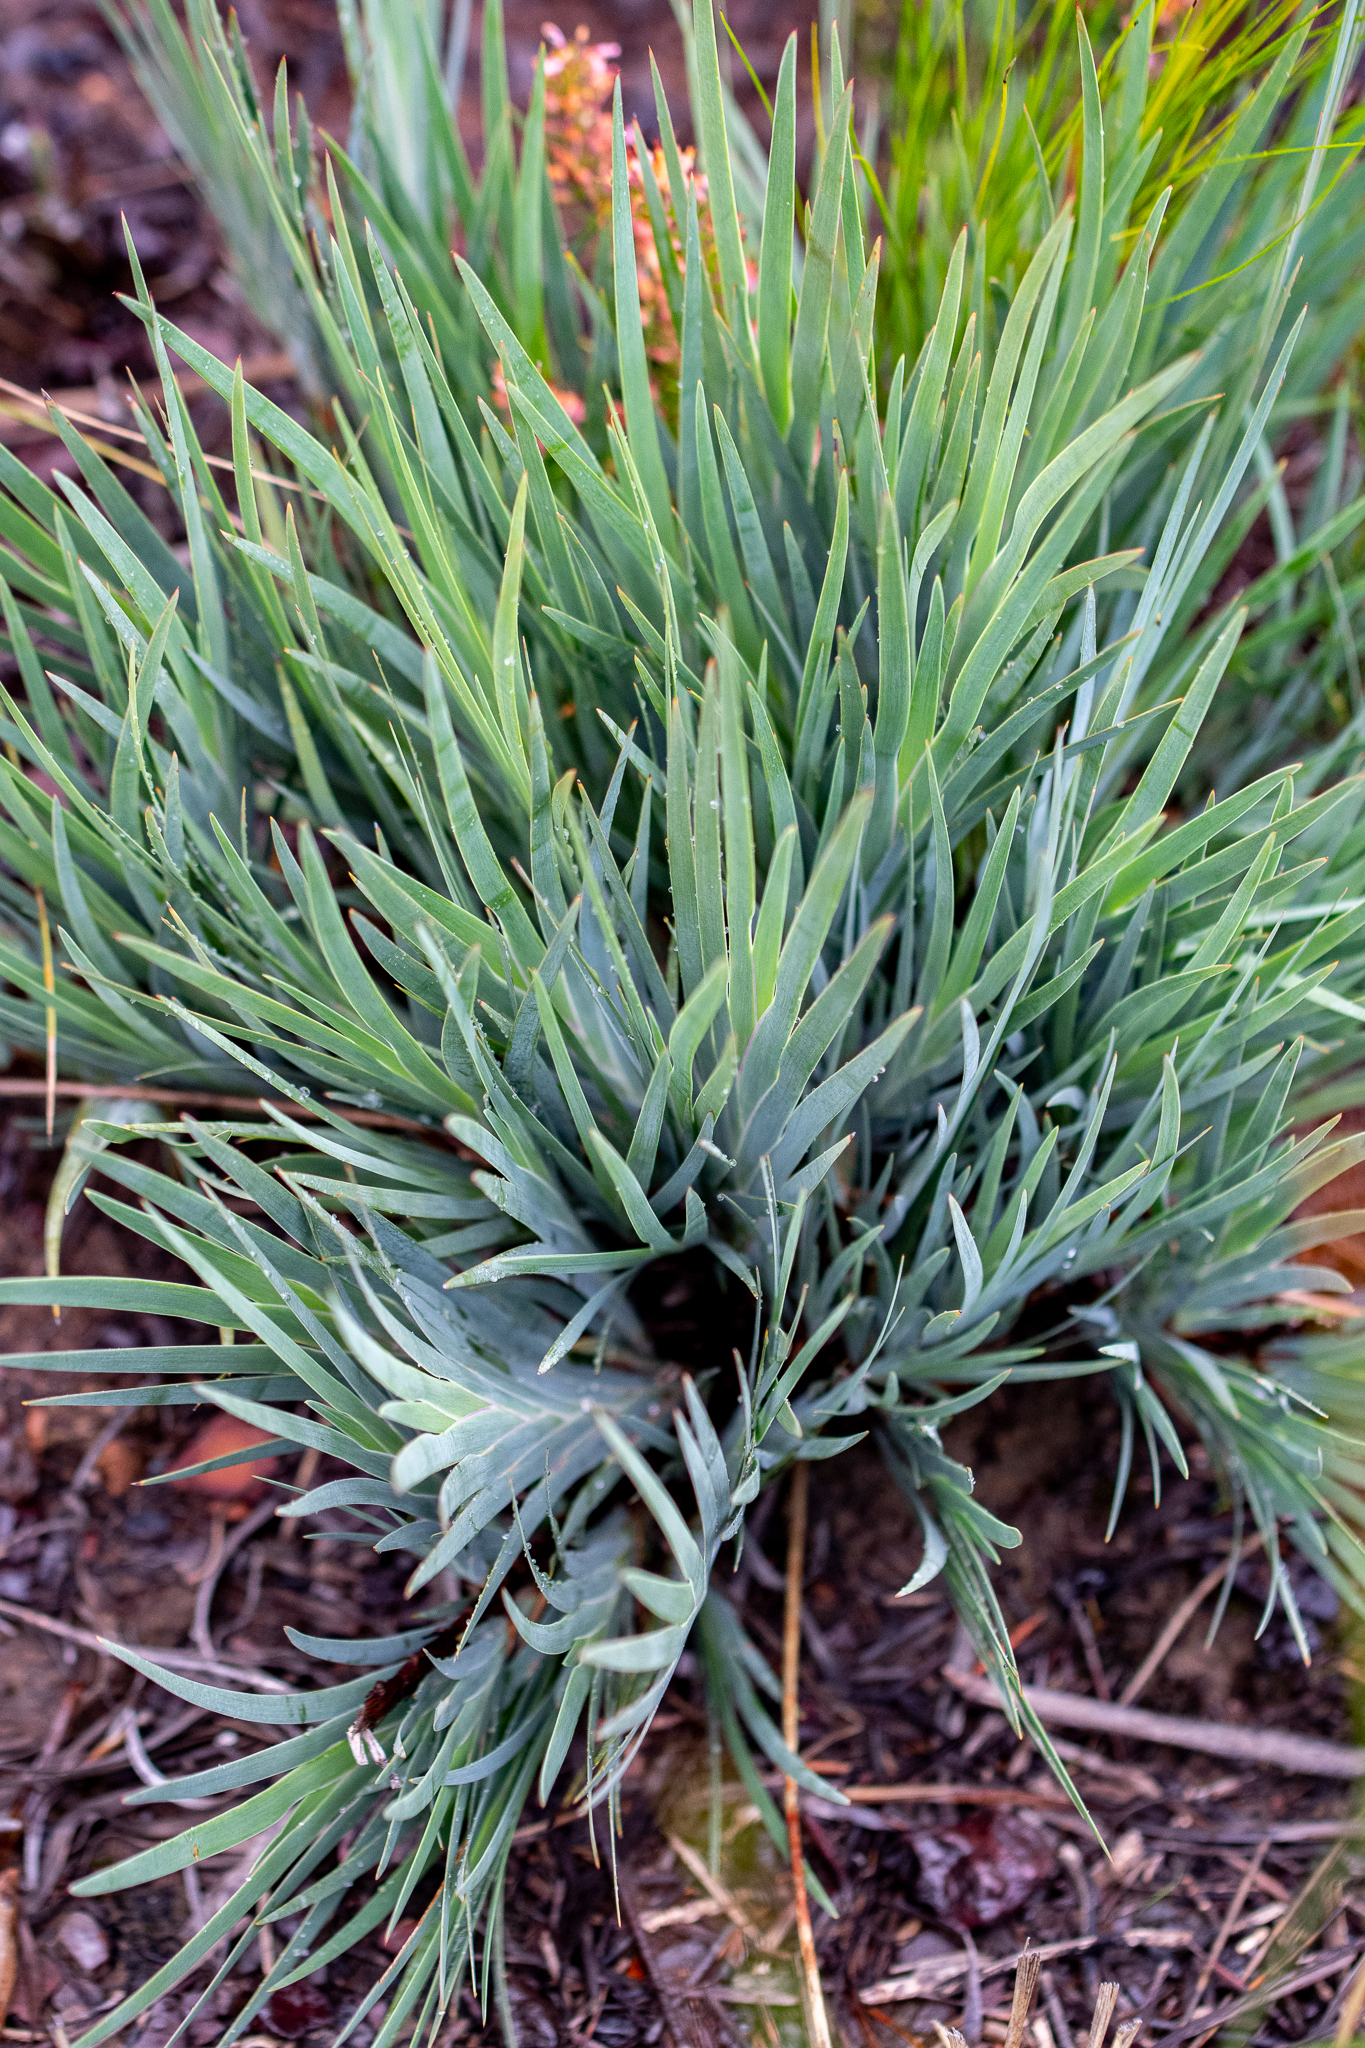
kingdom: Plantae
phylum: Tracheophyta
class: Liliopsida
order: Asparagales
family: Iridaceae
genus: Nivenia
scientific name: Nivenia stokoei
